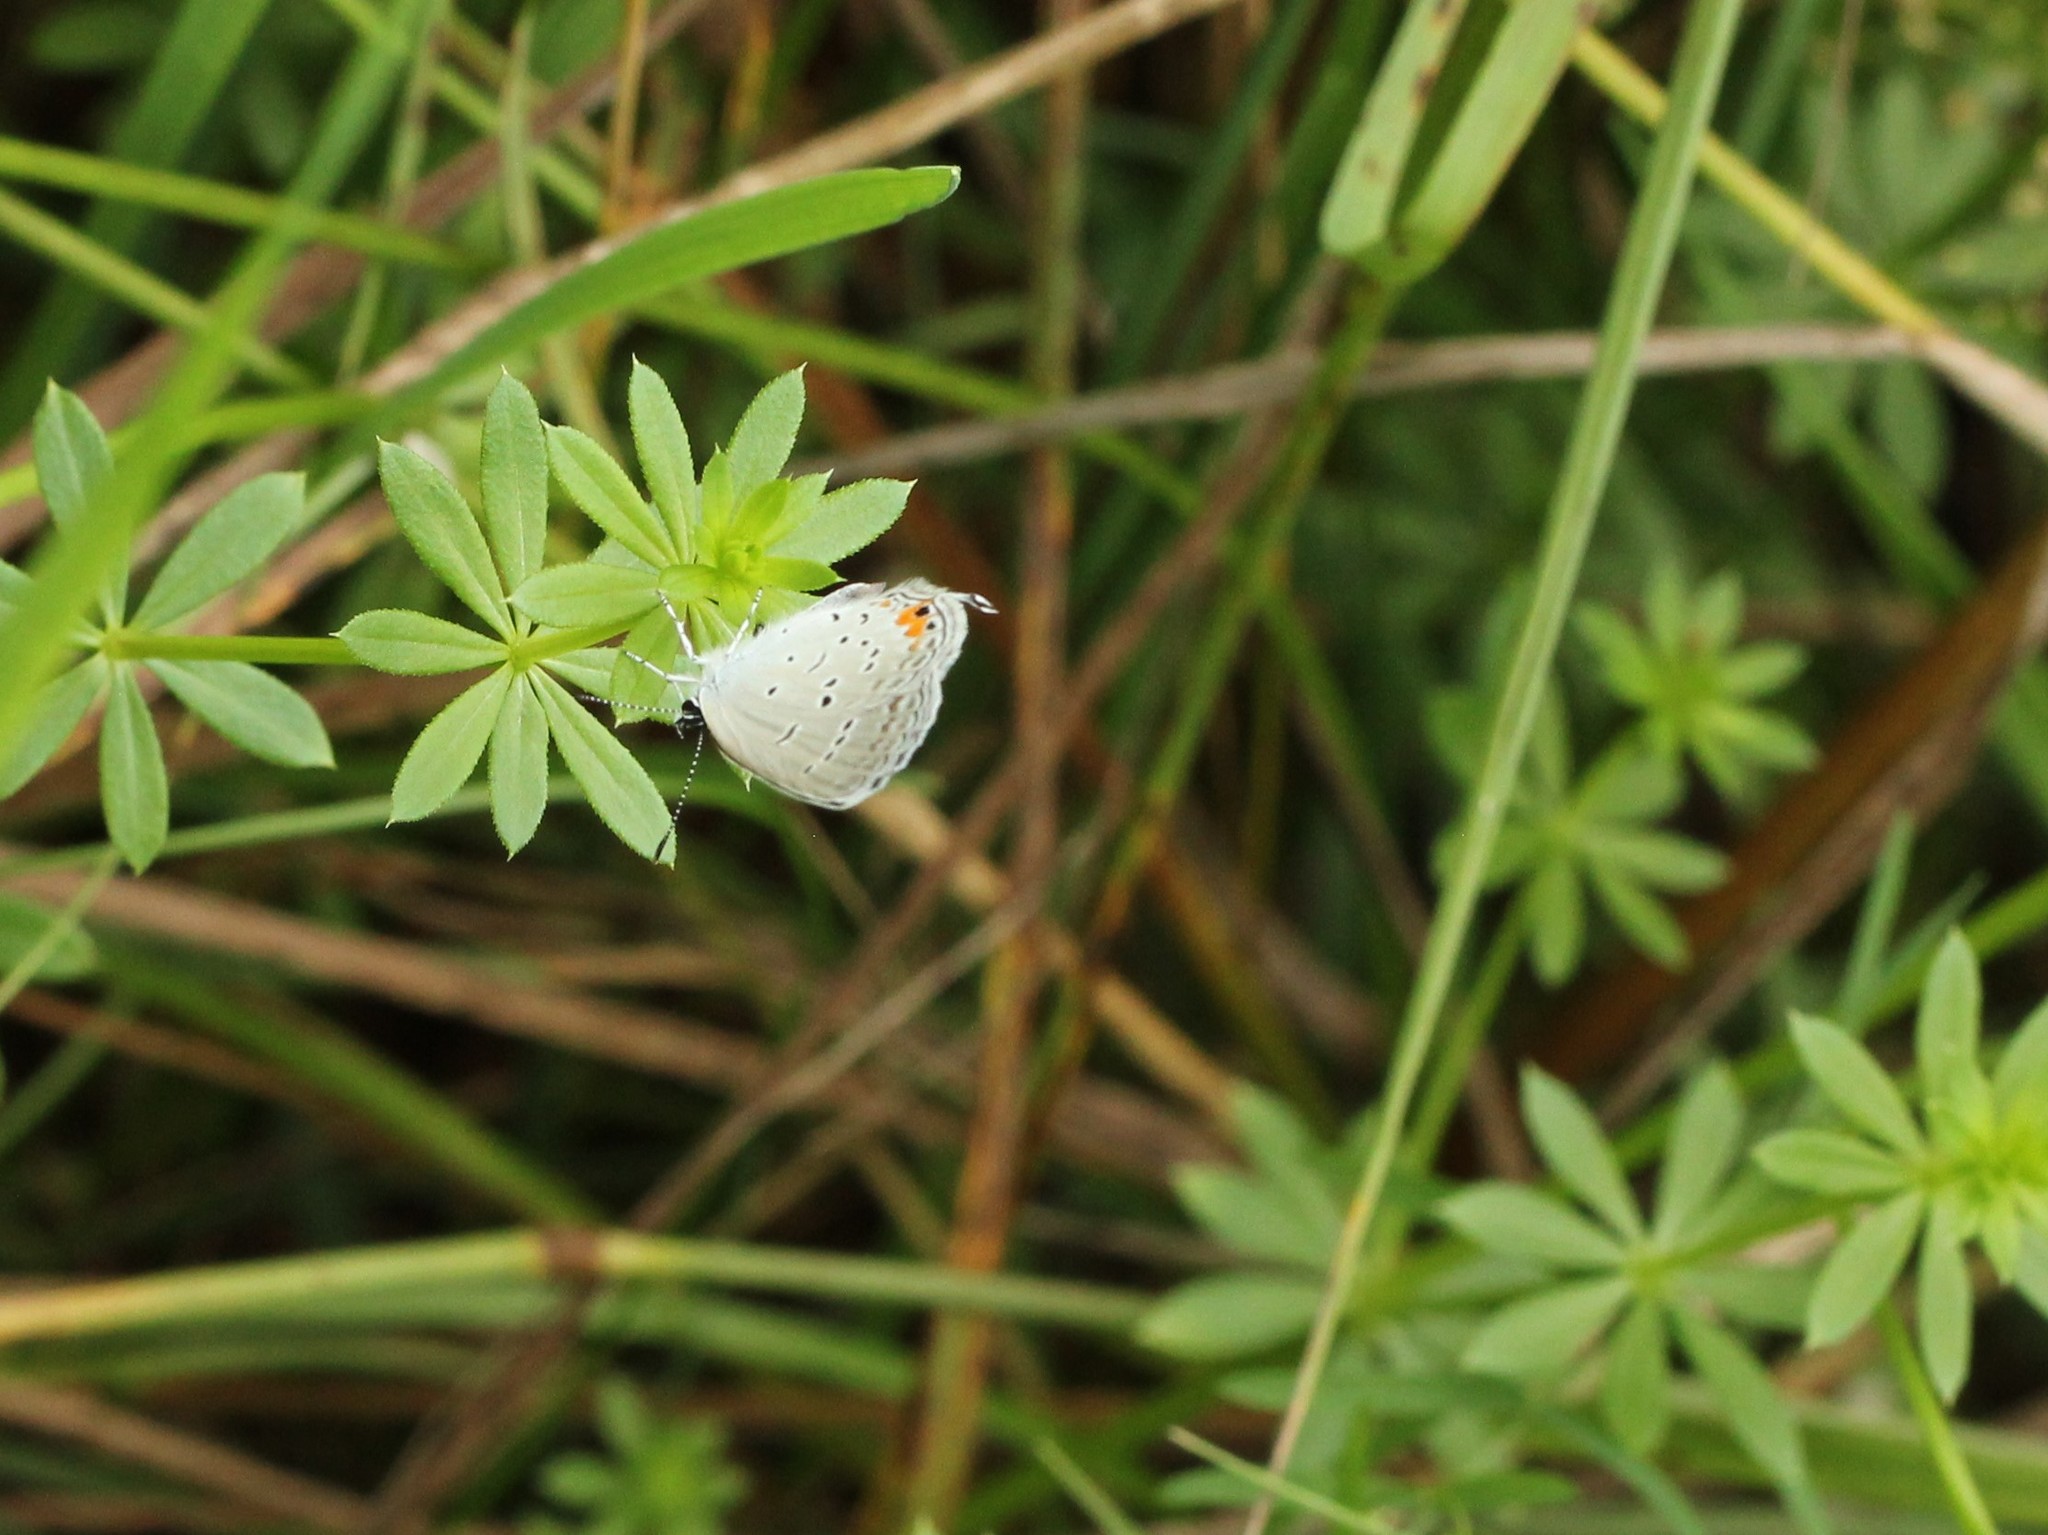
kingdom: Animalia
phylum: Arthropoda
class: Insecta
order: Lepidoptera
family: Lycaenidae
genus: Elkalyce
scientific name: Elkalyce comyntas
